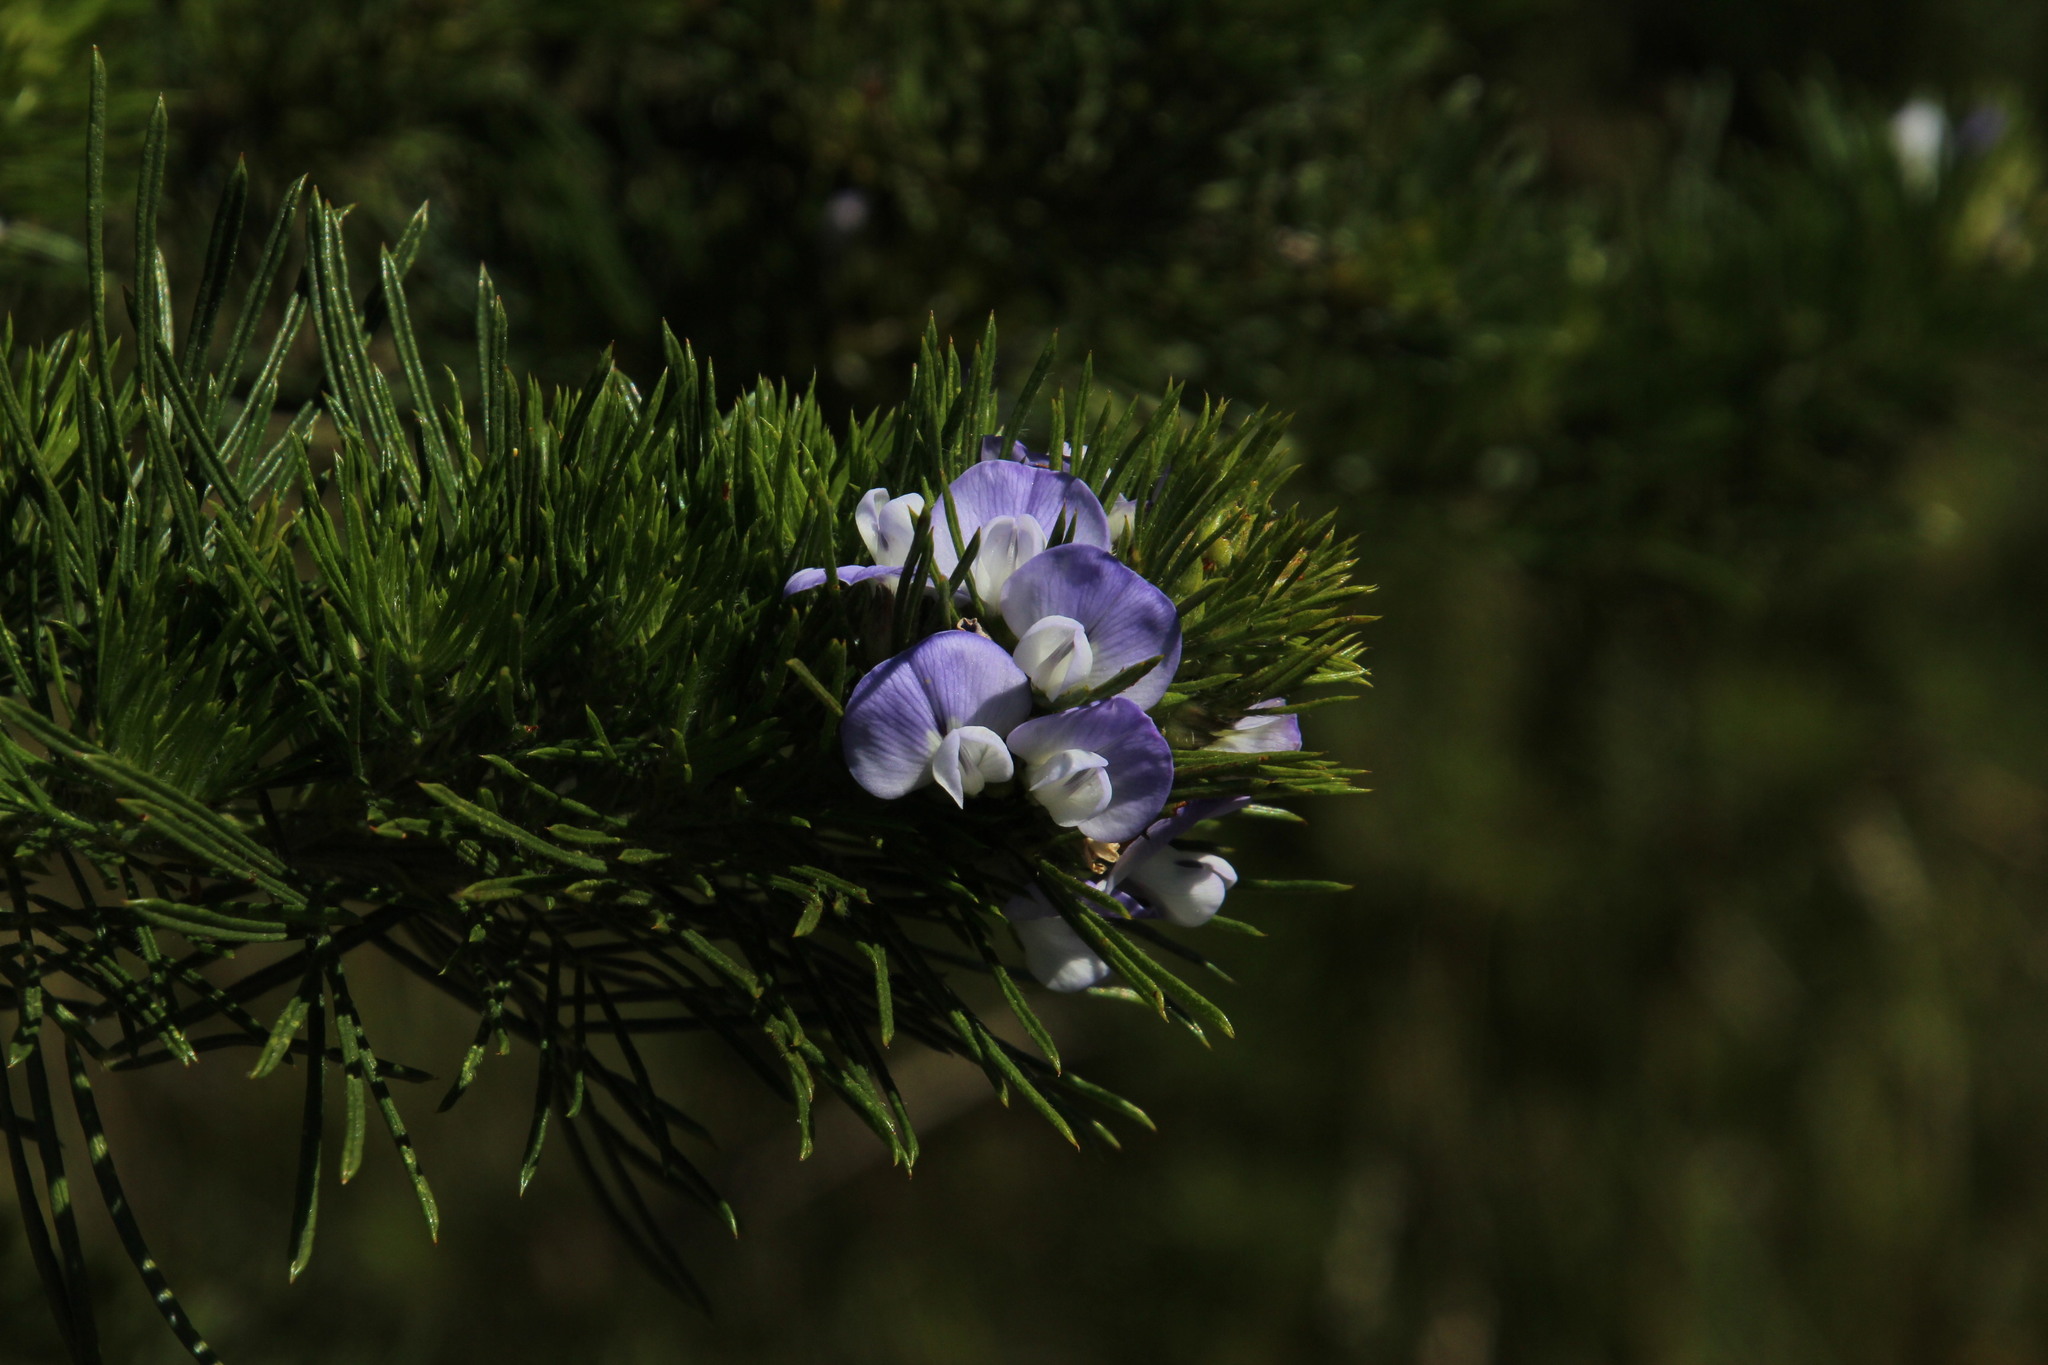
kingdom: Plantae
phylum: Tracheophyta
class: Magnoliopsida
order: Fabales
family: Fabaceae
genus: Psoralea
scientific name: Psoralea pinnata
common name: African scurfpea
